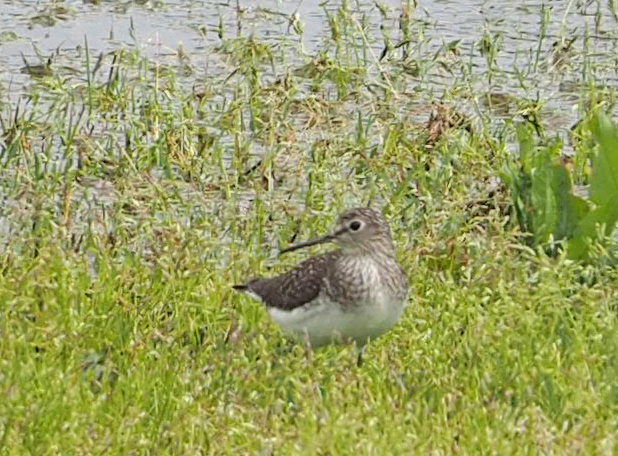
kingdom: Animalia
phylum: Chordata
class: Aves
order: Charadriiformes
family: Scolopacidae
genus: Tringa
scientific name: Tringa solitaria
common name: Solitary sandpiper
